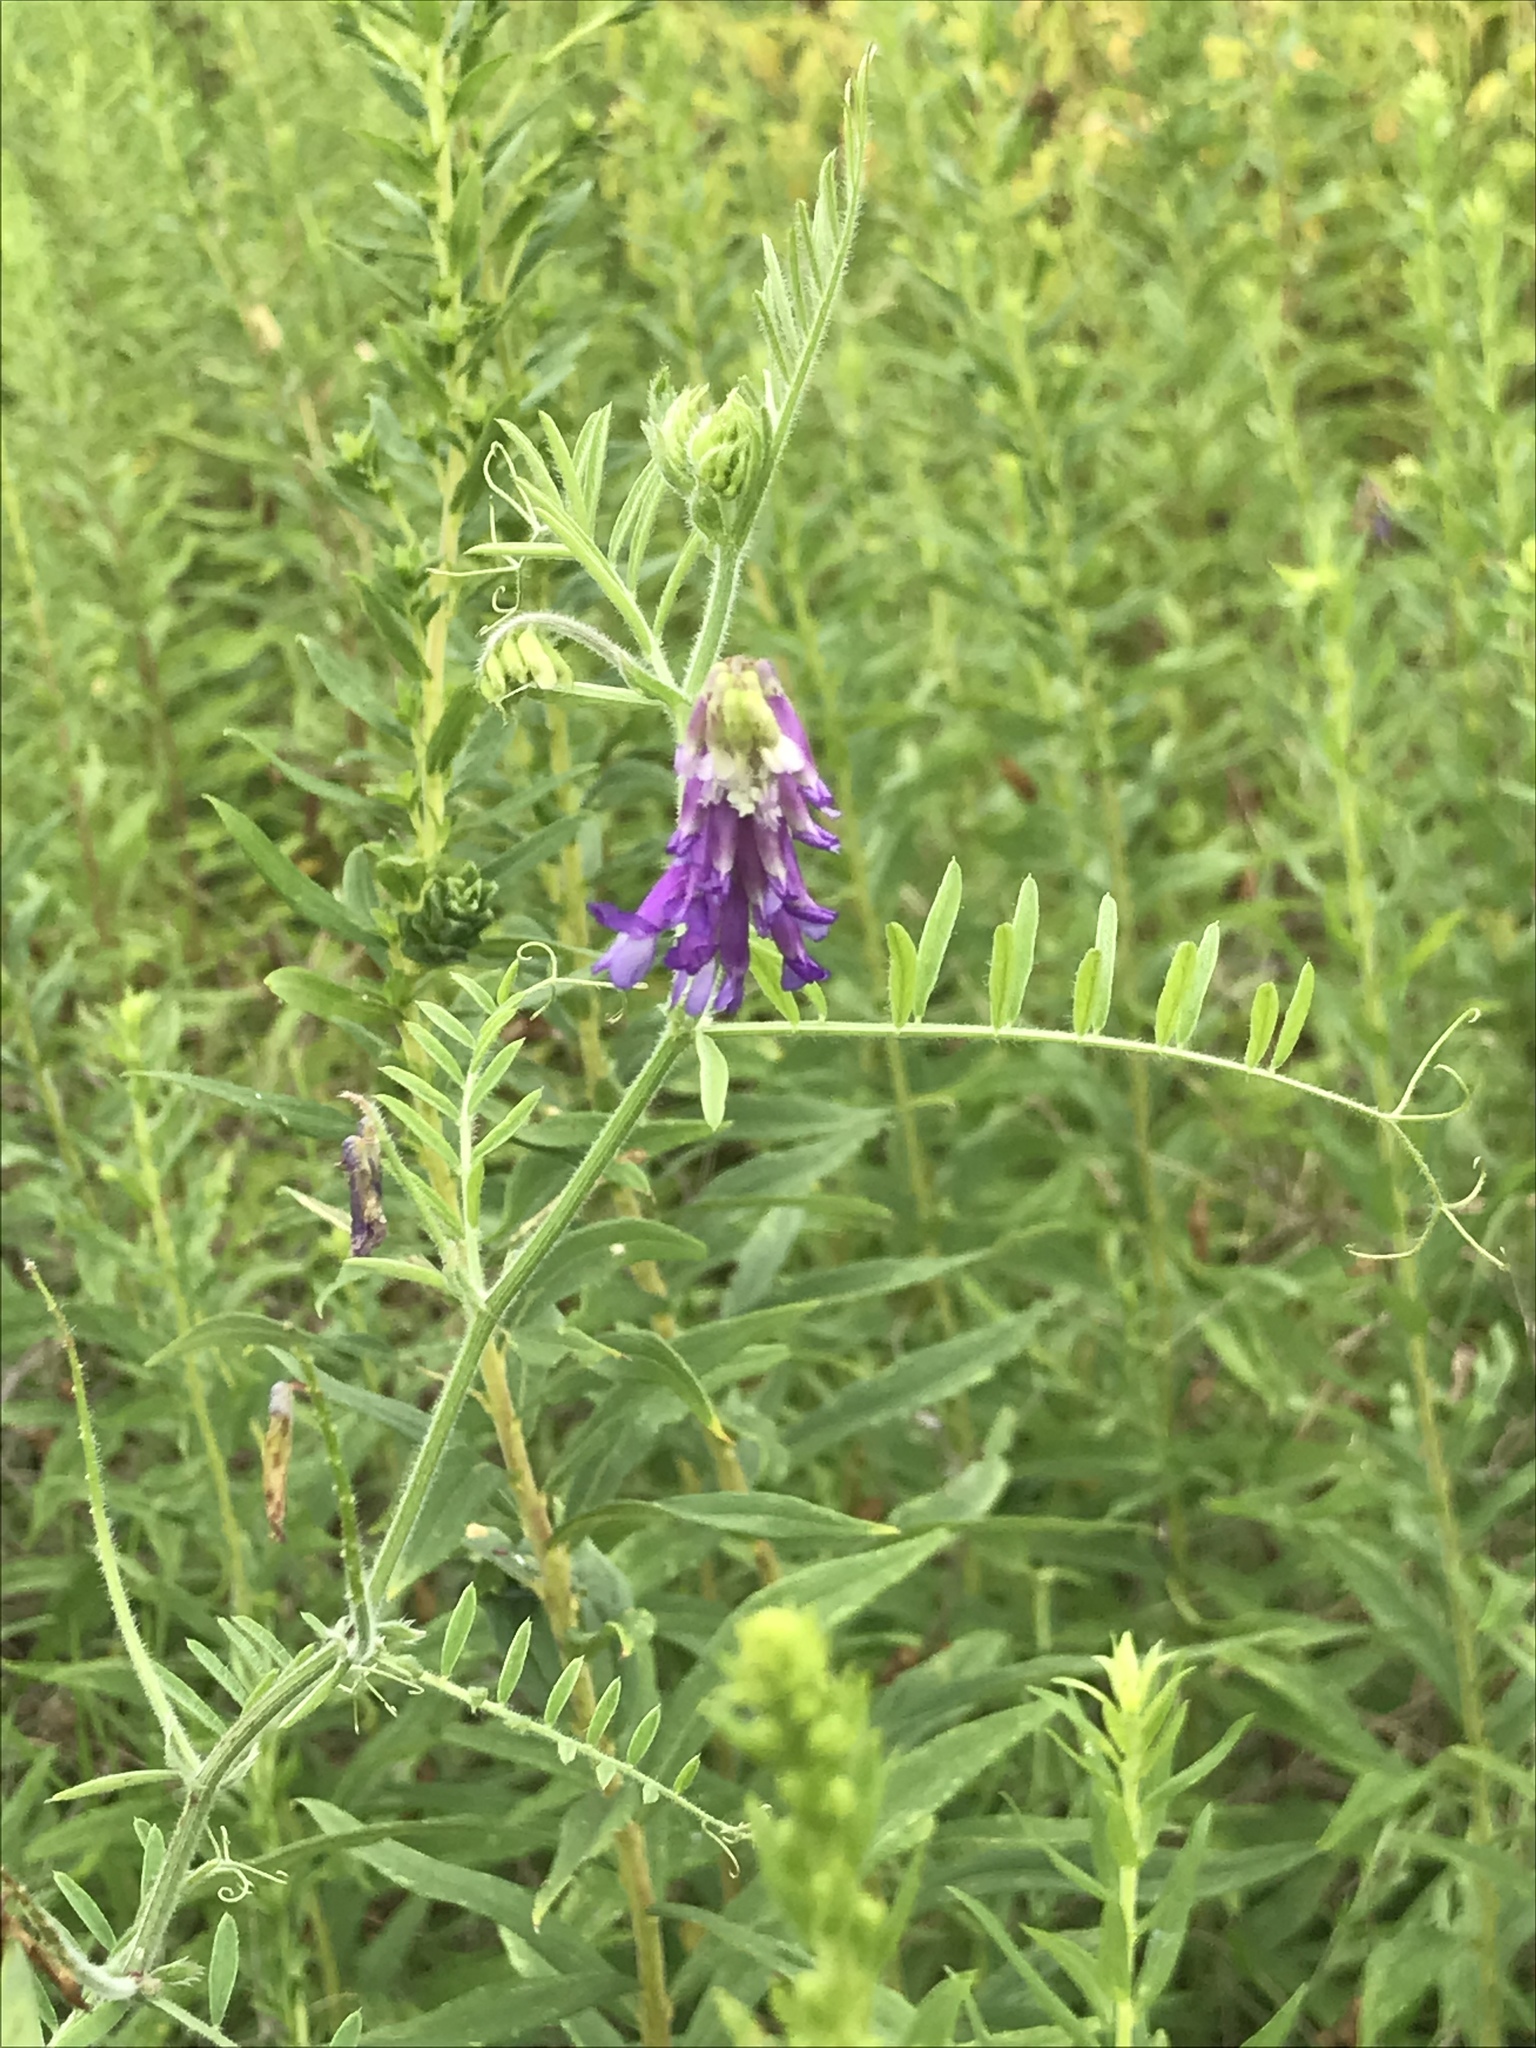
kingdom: Plantae
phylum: Tracheophyta
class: Magnoliopsida
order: Fabales
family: Fabaceae
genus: Vicia
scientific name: Vicia villosa
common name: Fodder vetch
